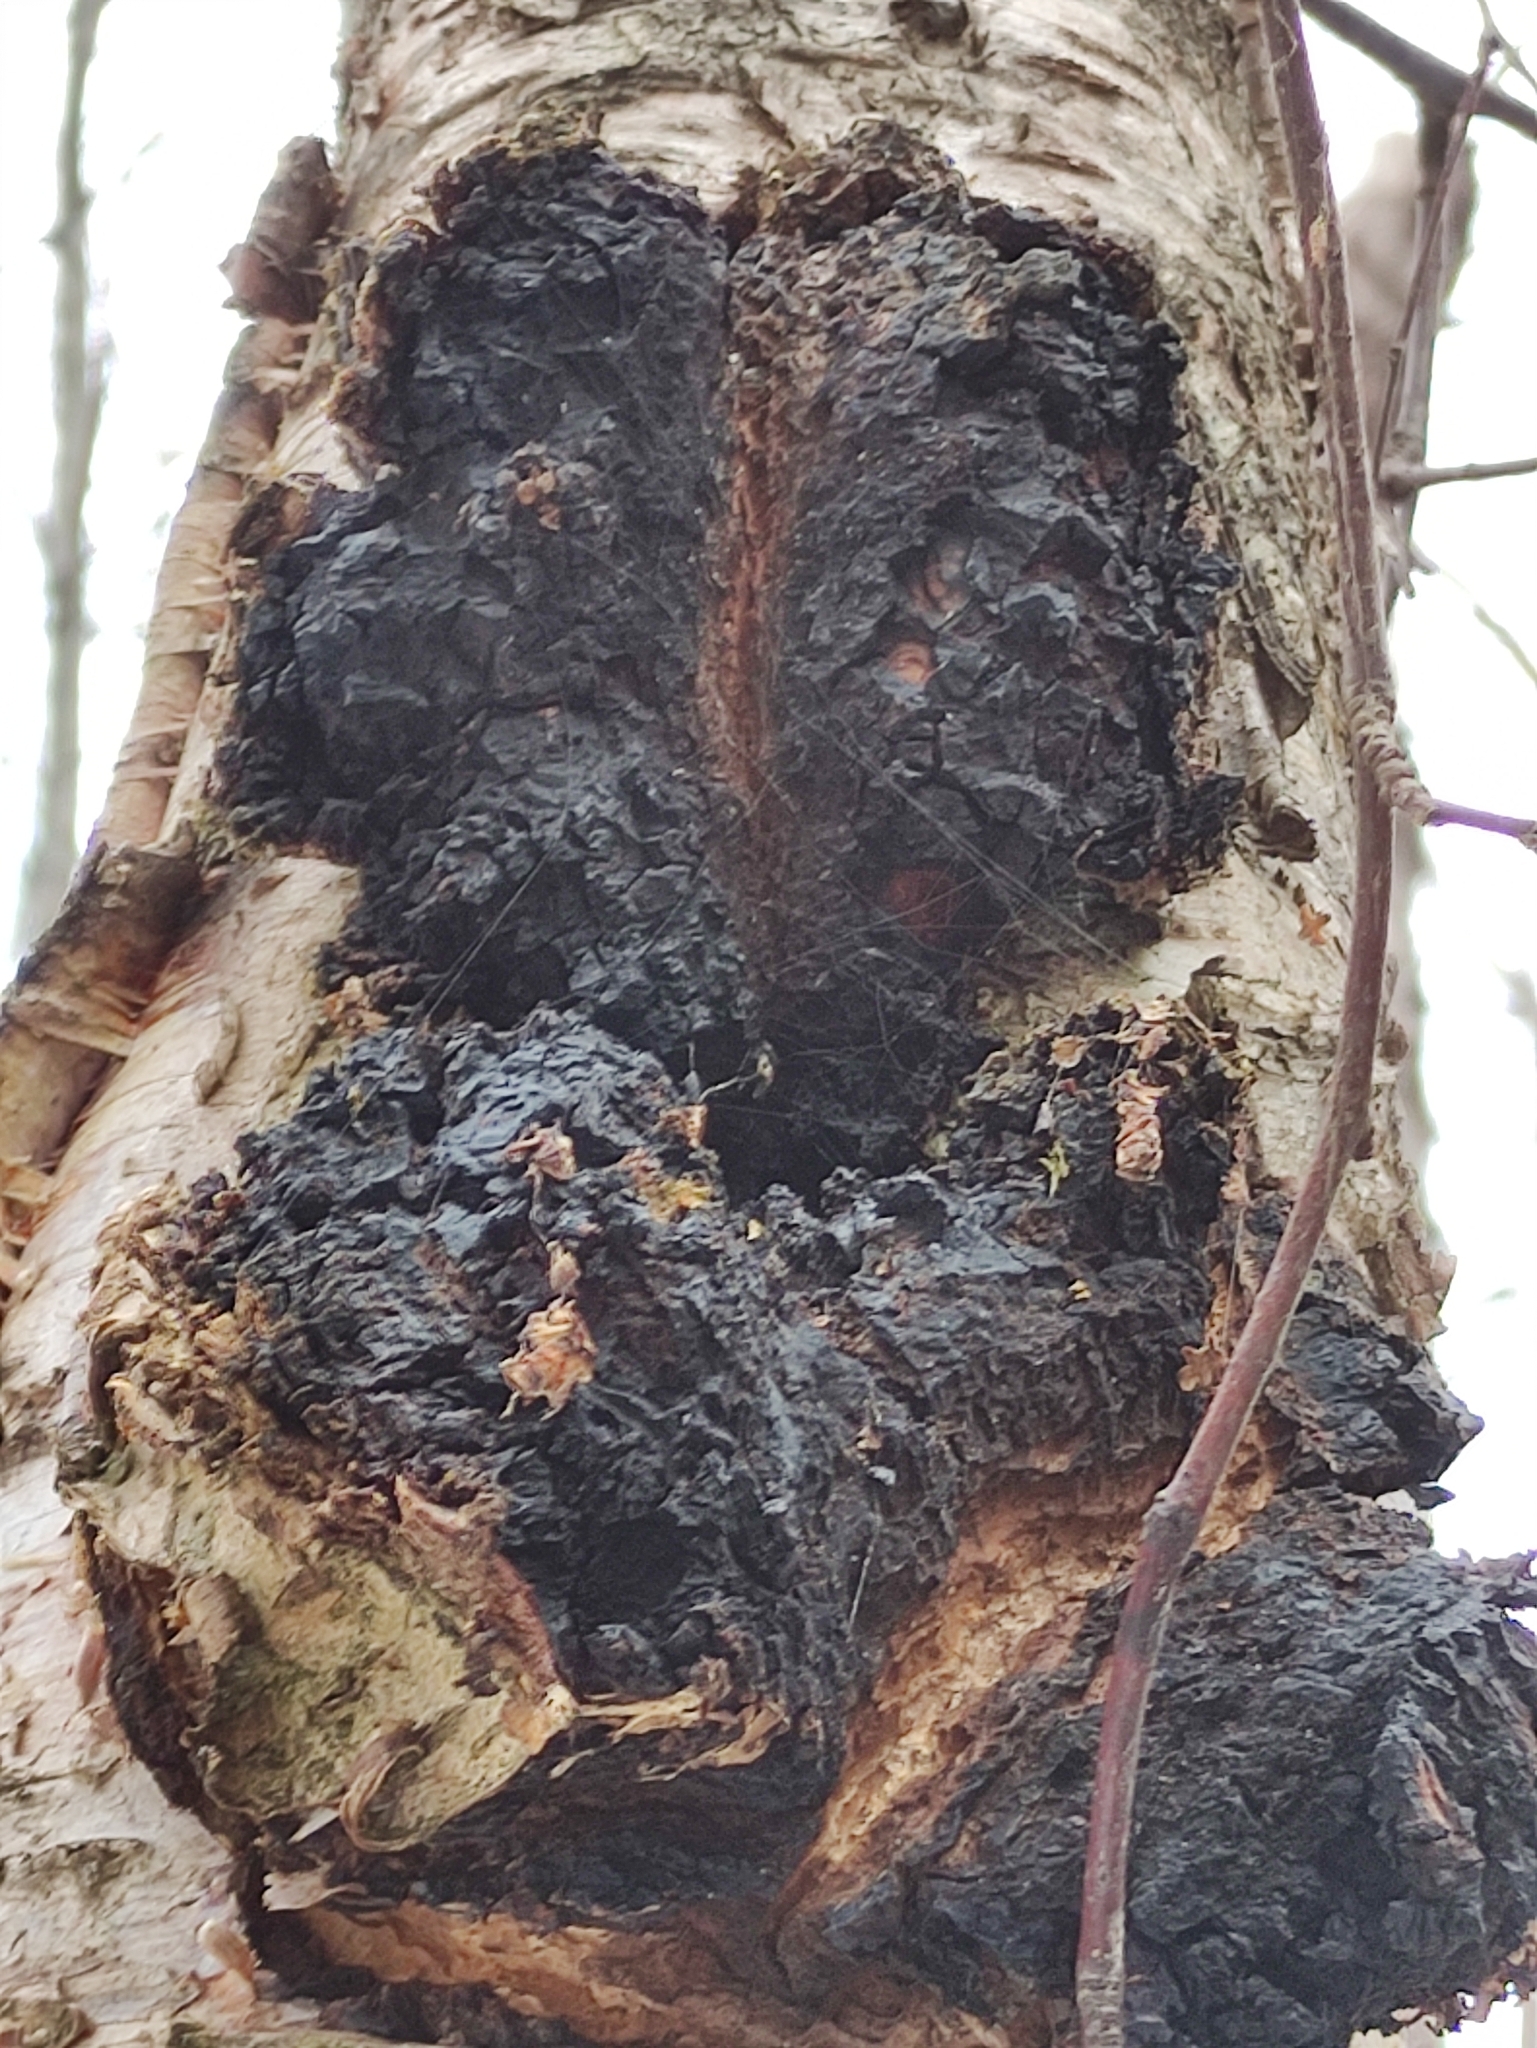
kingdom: Fungi
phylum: Basidiomycota
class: Agaricomycetes
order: Hymenochaetales
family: Hymenochaetaceae
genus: Inonotus
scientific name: Inonotus obliquus
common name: Chaga
